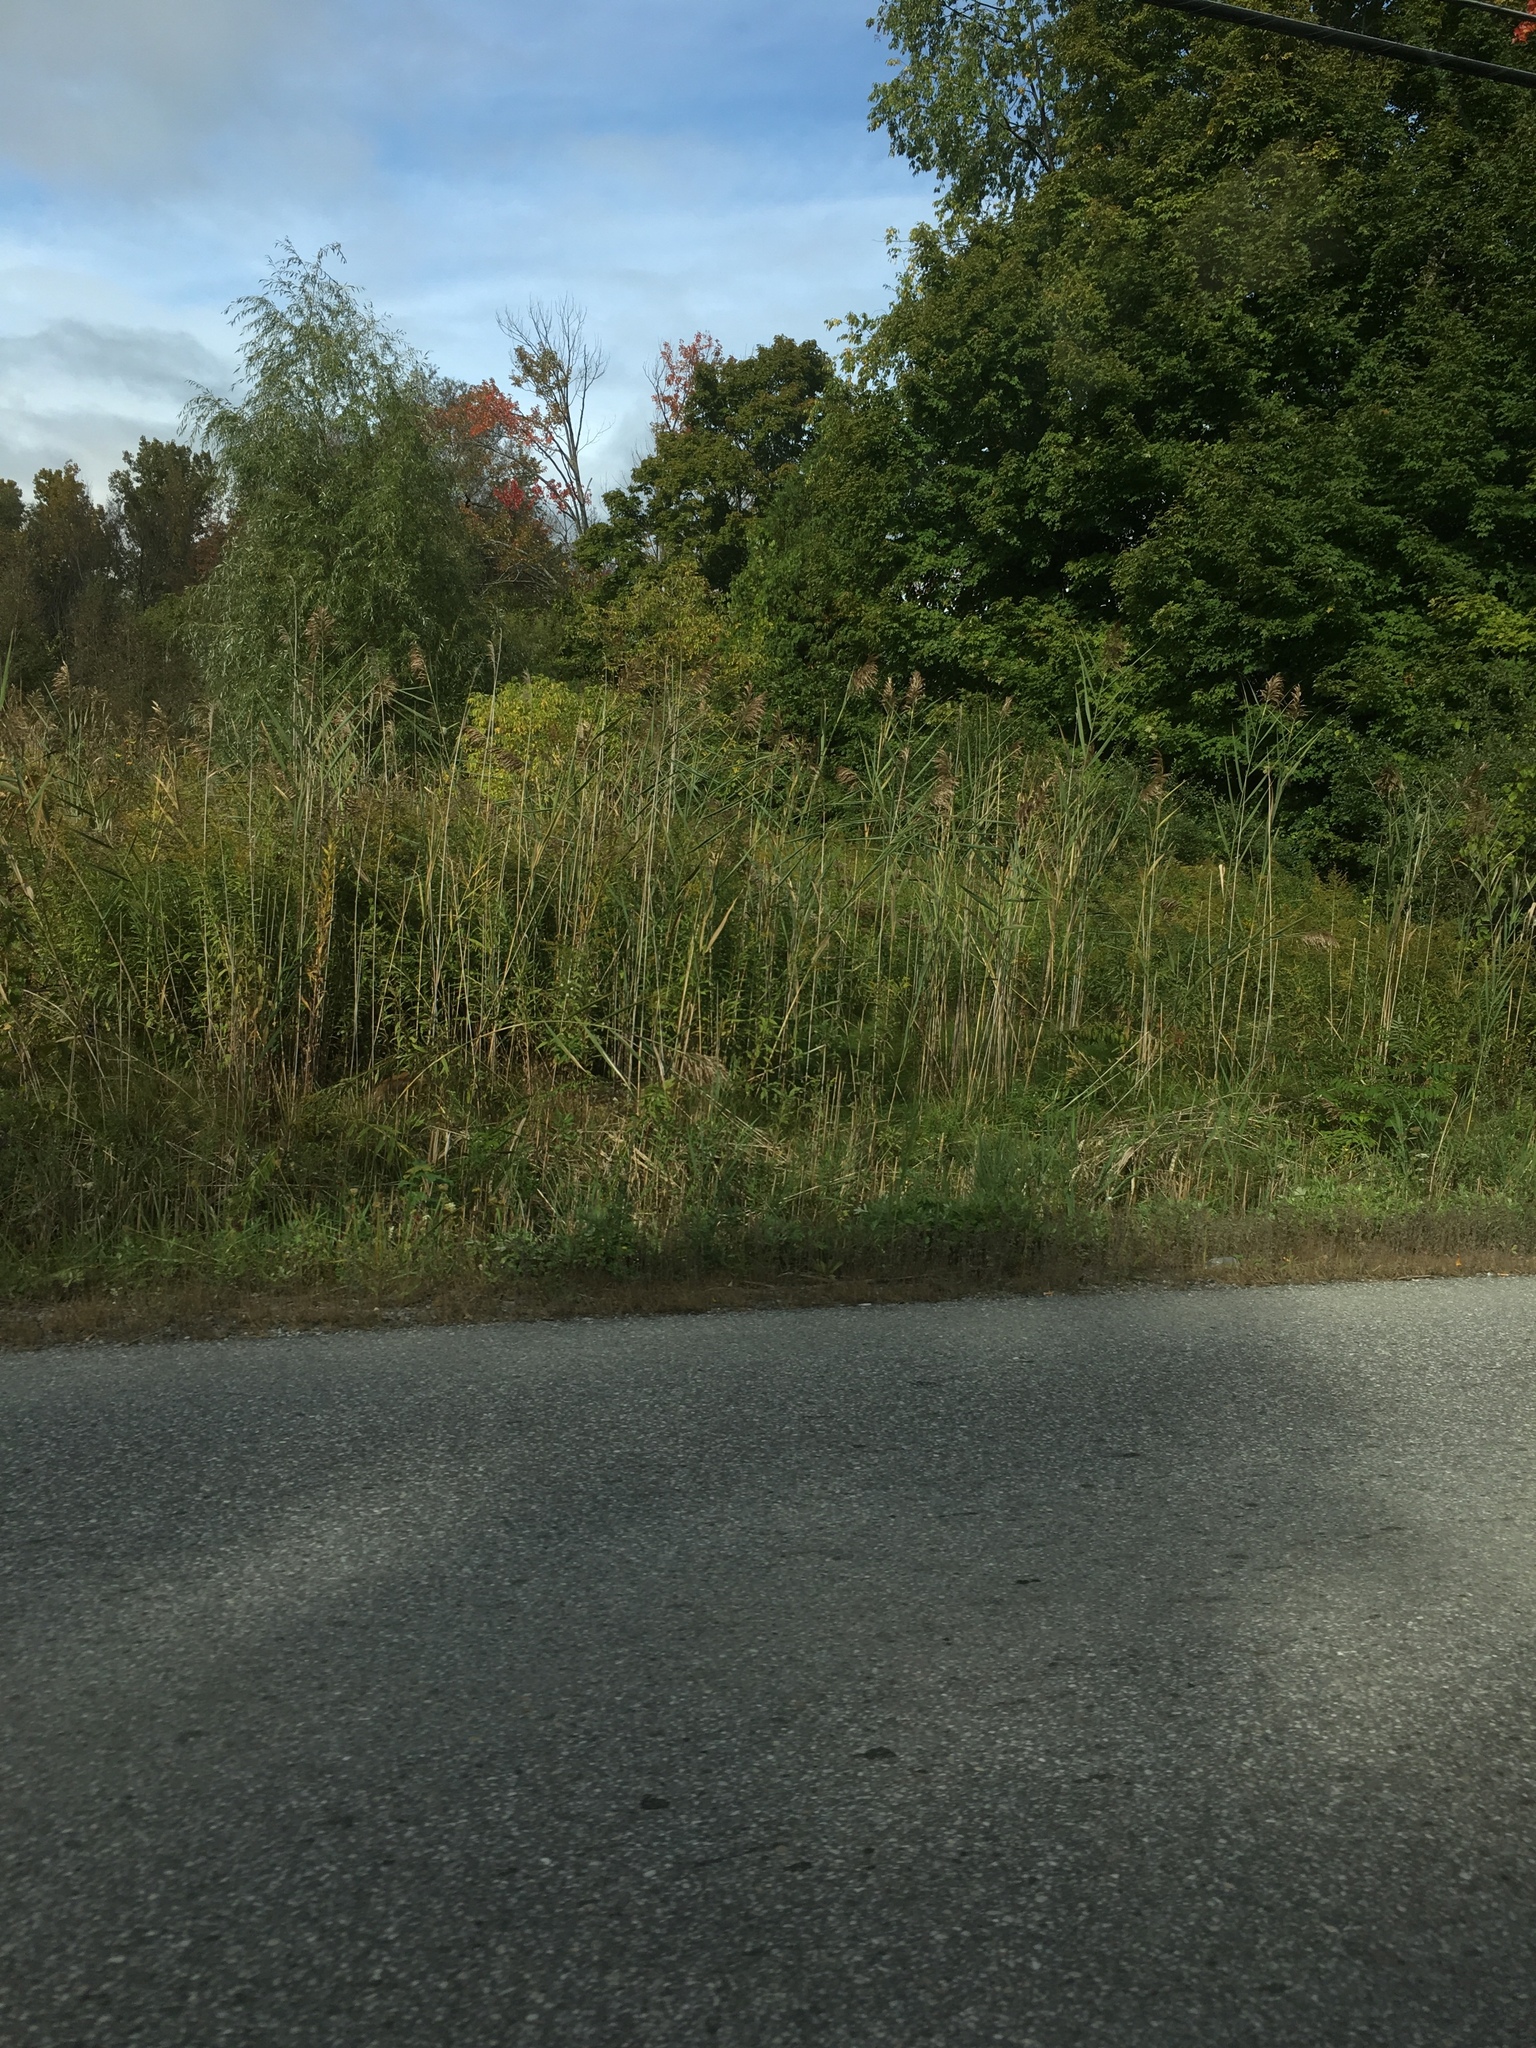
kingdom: Plantae
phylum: Tracheophyta
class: Liliopsida
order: Poales
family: Poaceae
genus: Phragmites
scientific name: Phragmites australis
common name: Common reed
